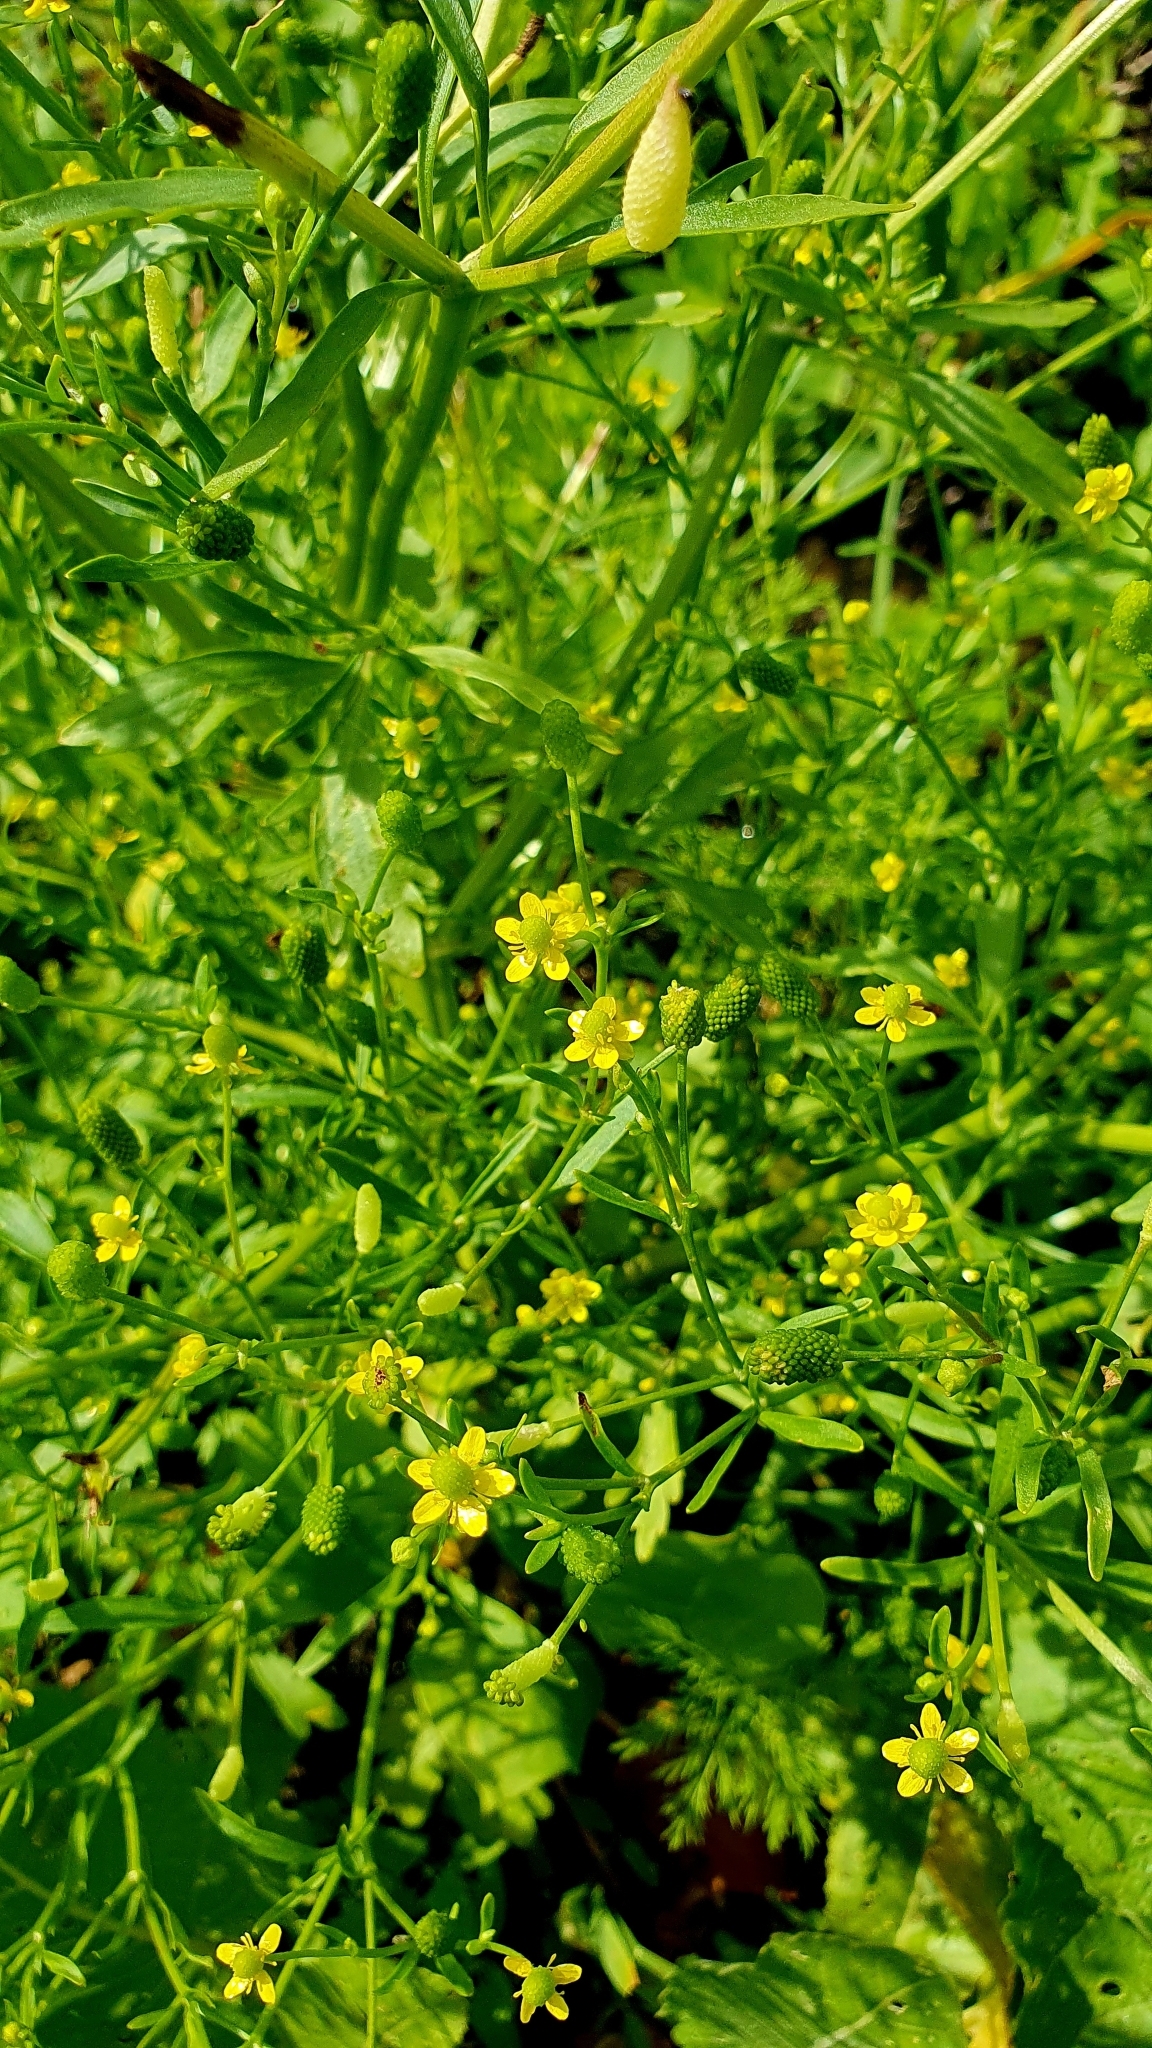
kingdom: Plantae
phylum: Tracheophyta
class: Magnoliopsida
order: Ranunculales
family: Ranunculaceae
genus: Ranunculus
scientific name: Ranunculus sceleratus
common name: Celery-leaved buttercup
